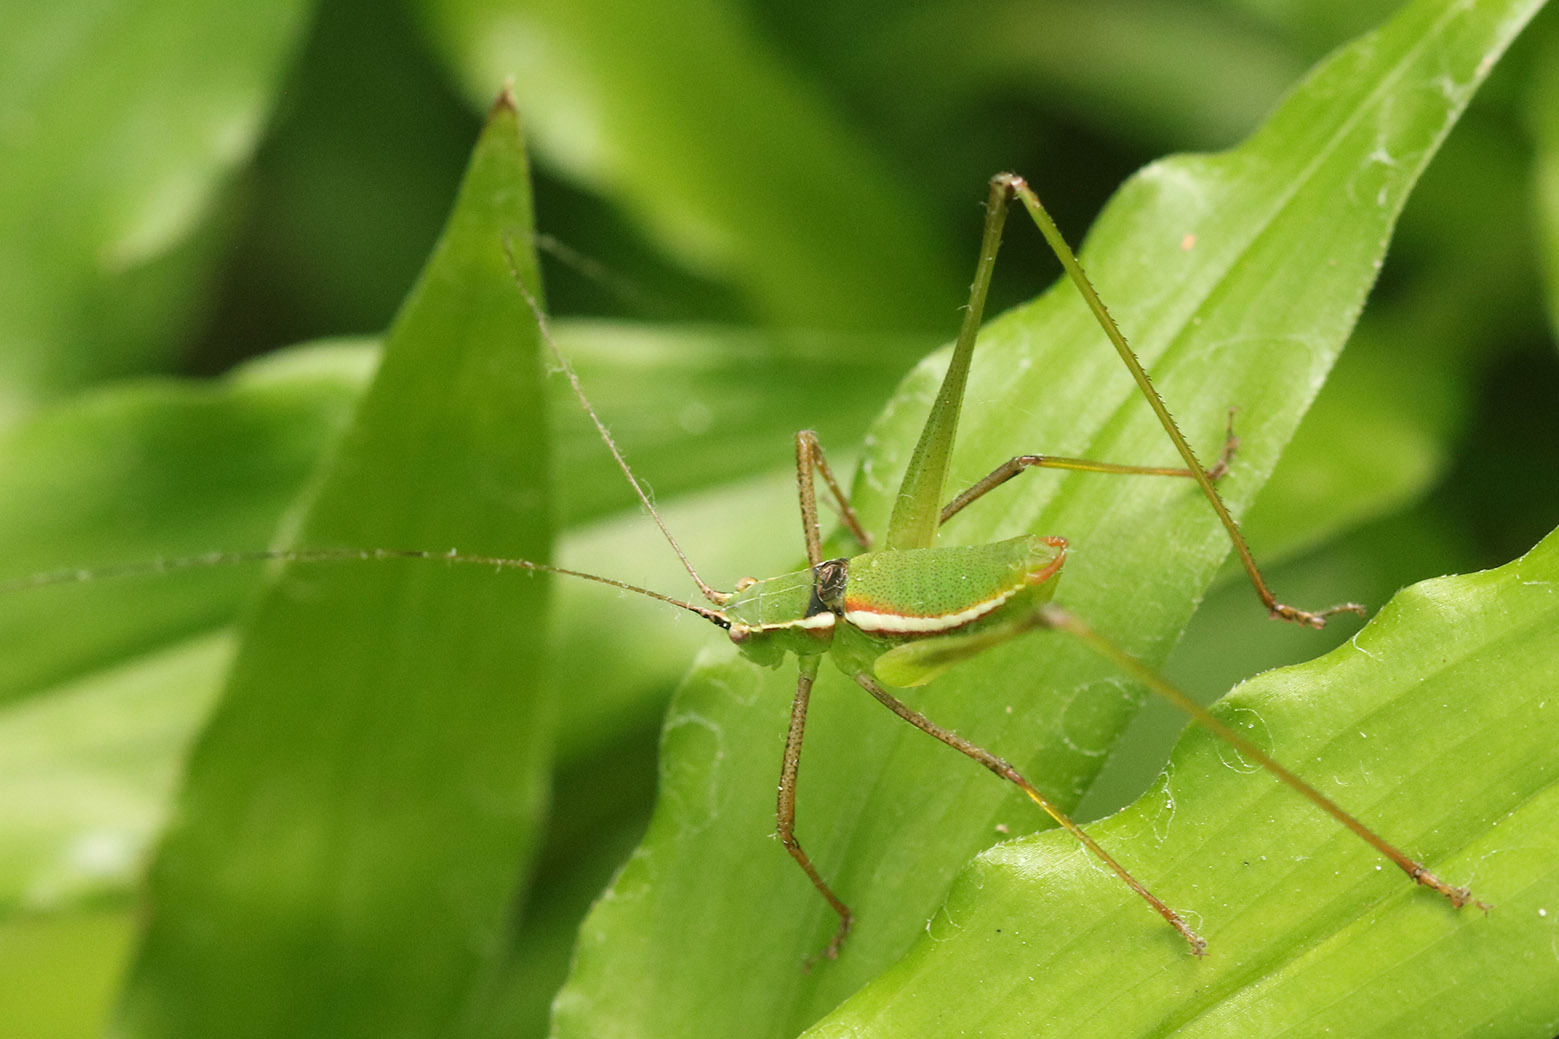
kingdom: Animalia
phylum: Arthropoda
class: Insecta
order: Orthoptera
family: Tettigoniidae
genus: Xenicola
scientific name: Xenicola dohrni
